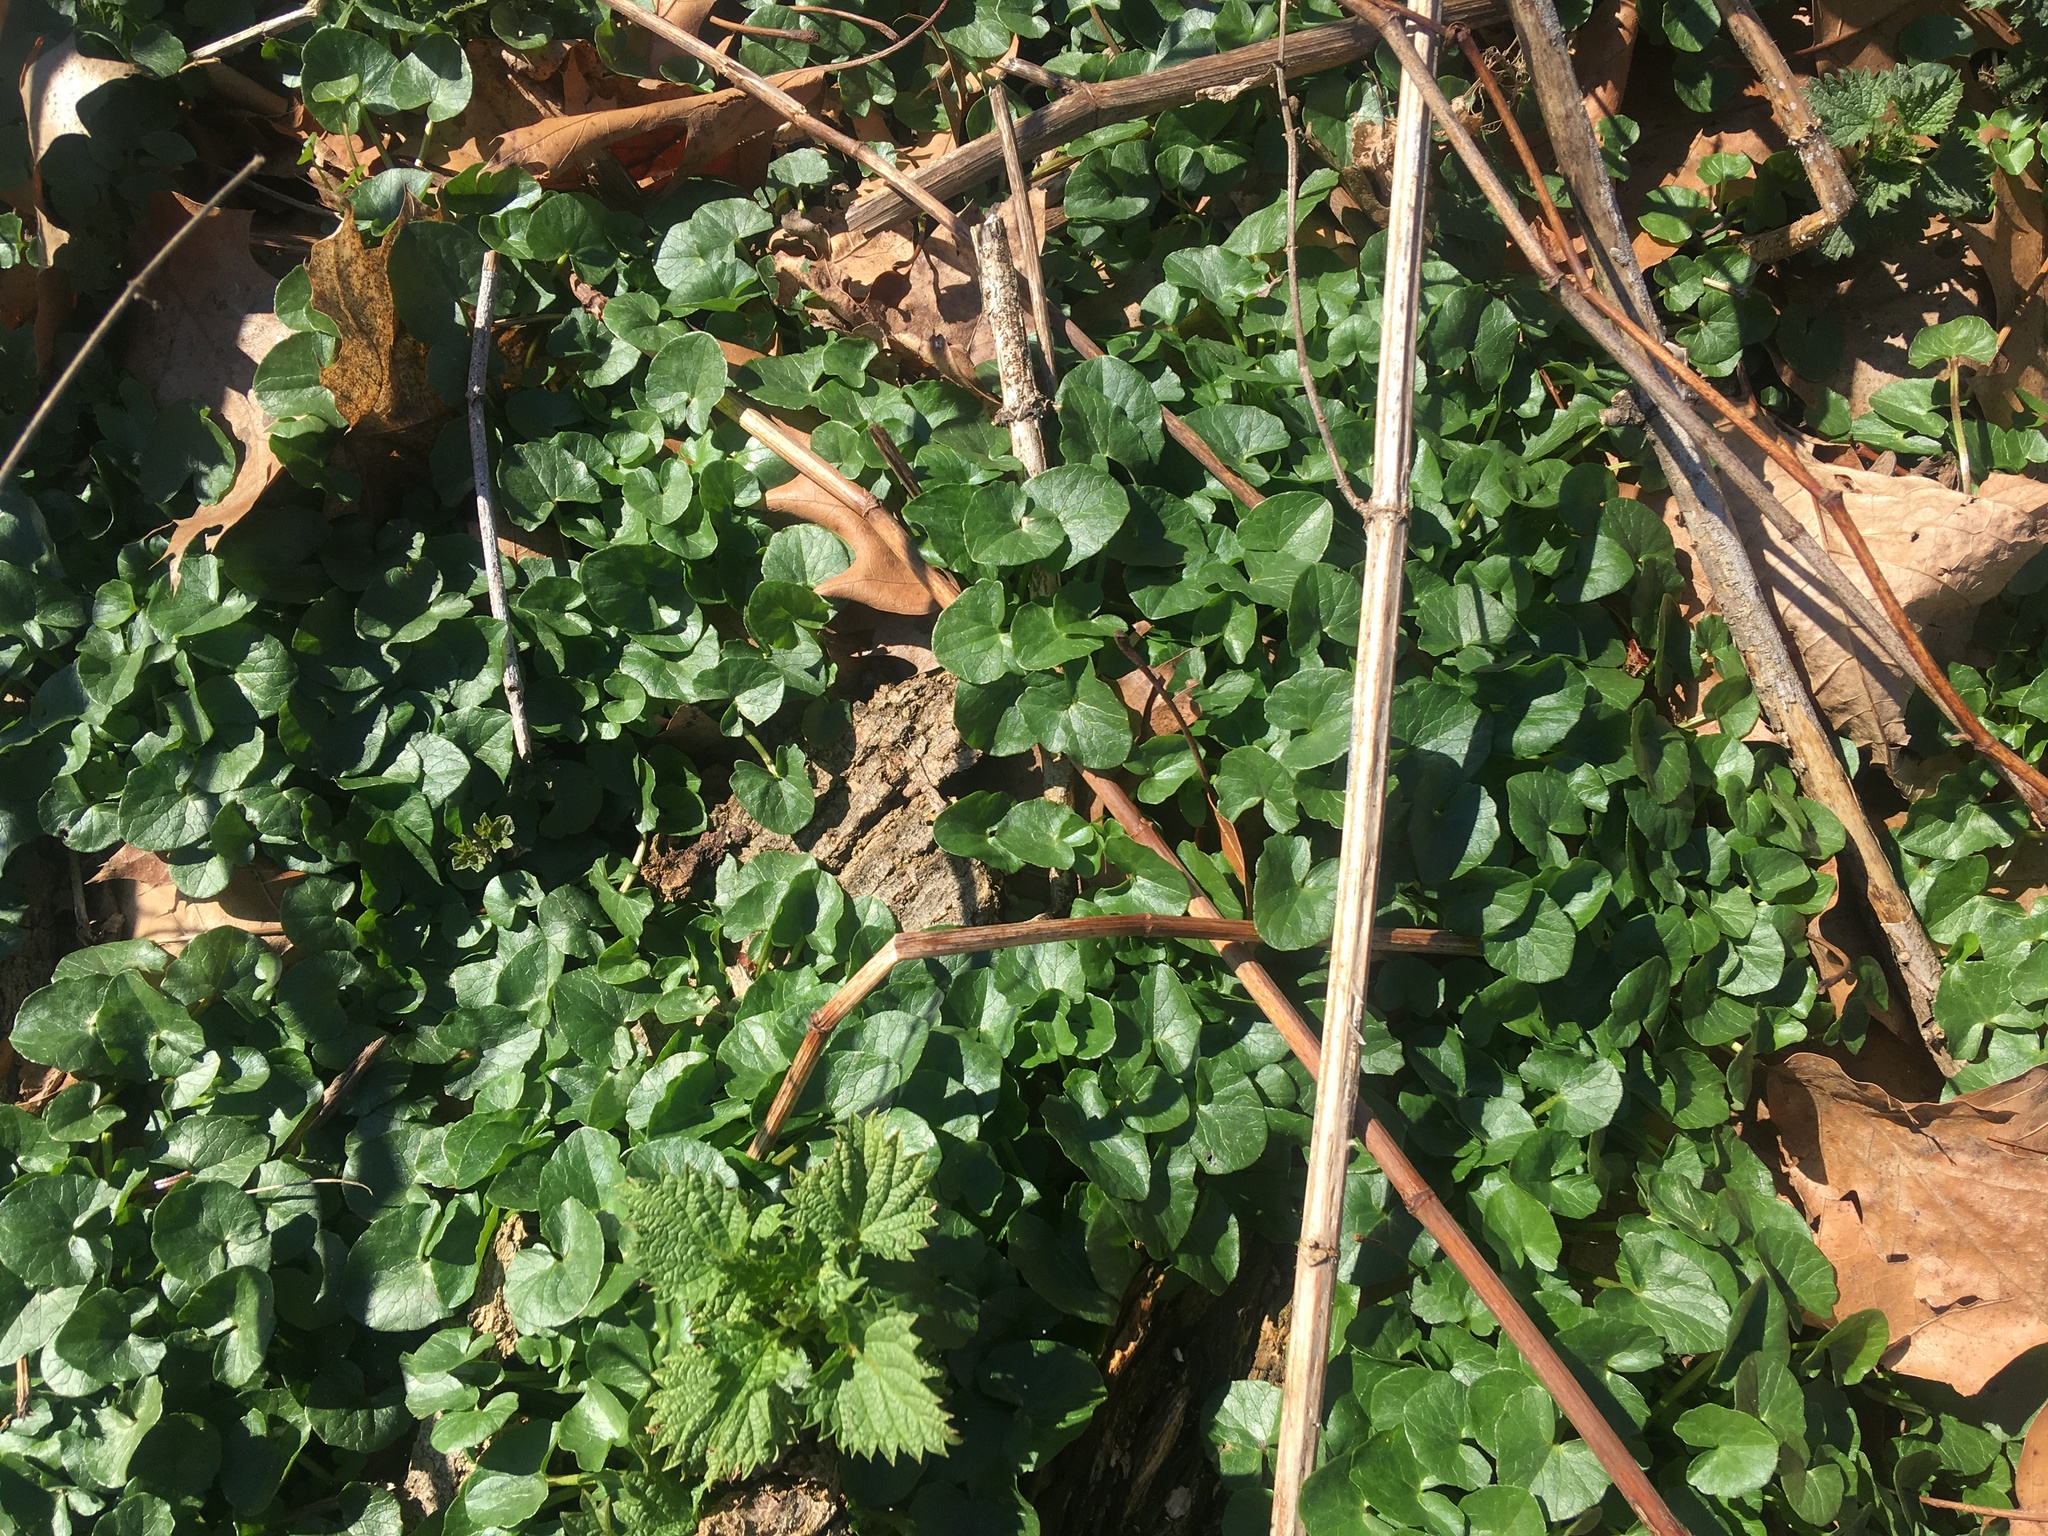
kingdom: Plantae
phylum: Tracheophyta
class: Magnoliopsida
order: Ranunculales
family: Ranunculaceae
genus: Ficaria
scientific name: Ficaria verna
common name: Lesser celandine
